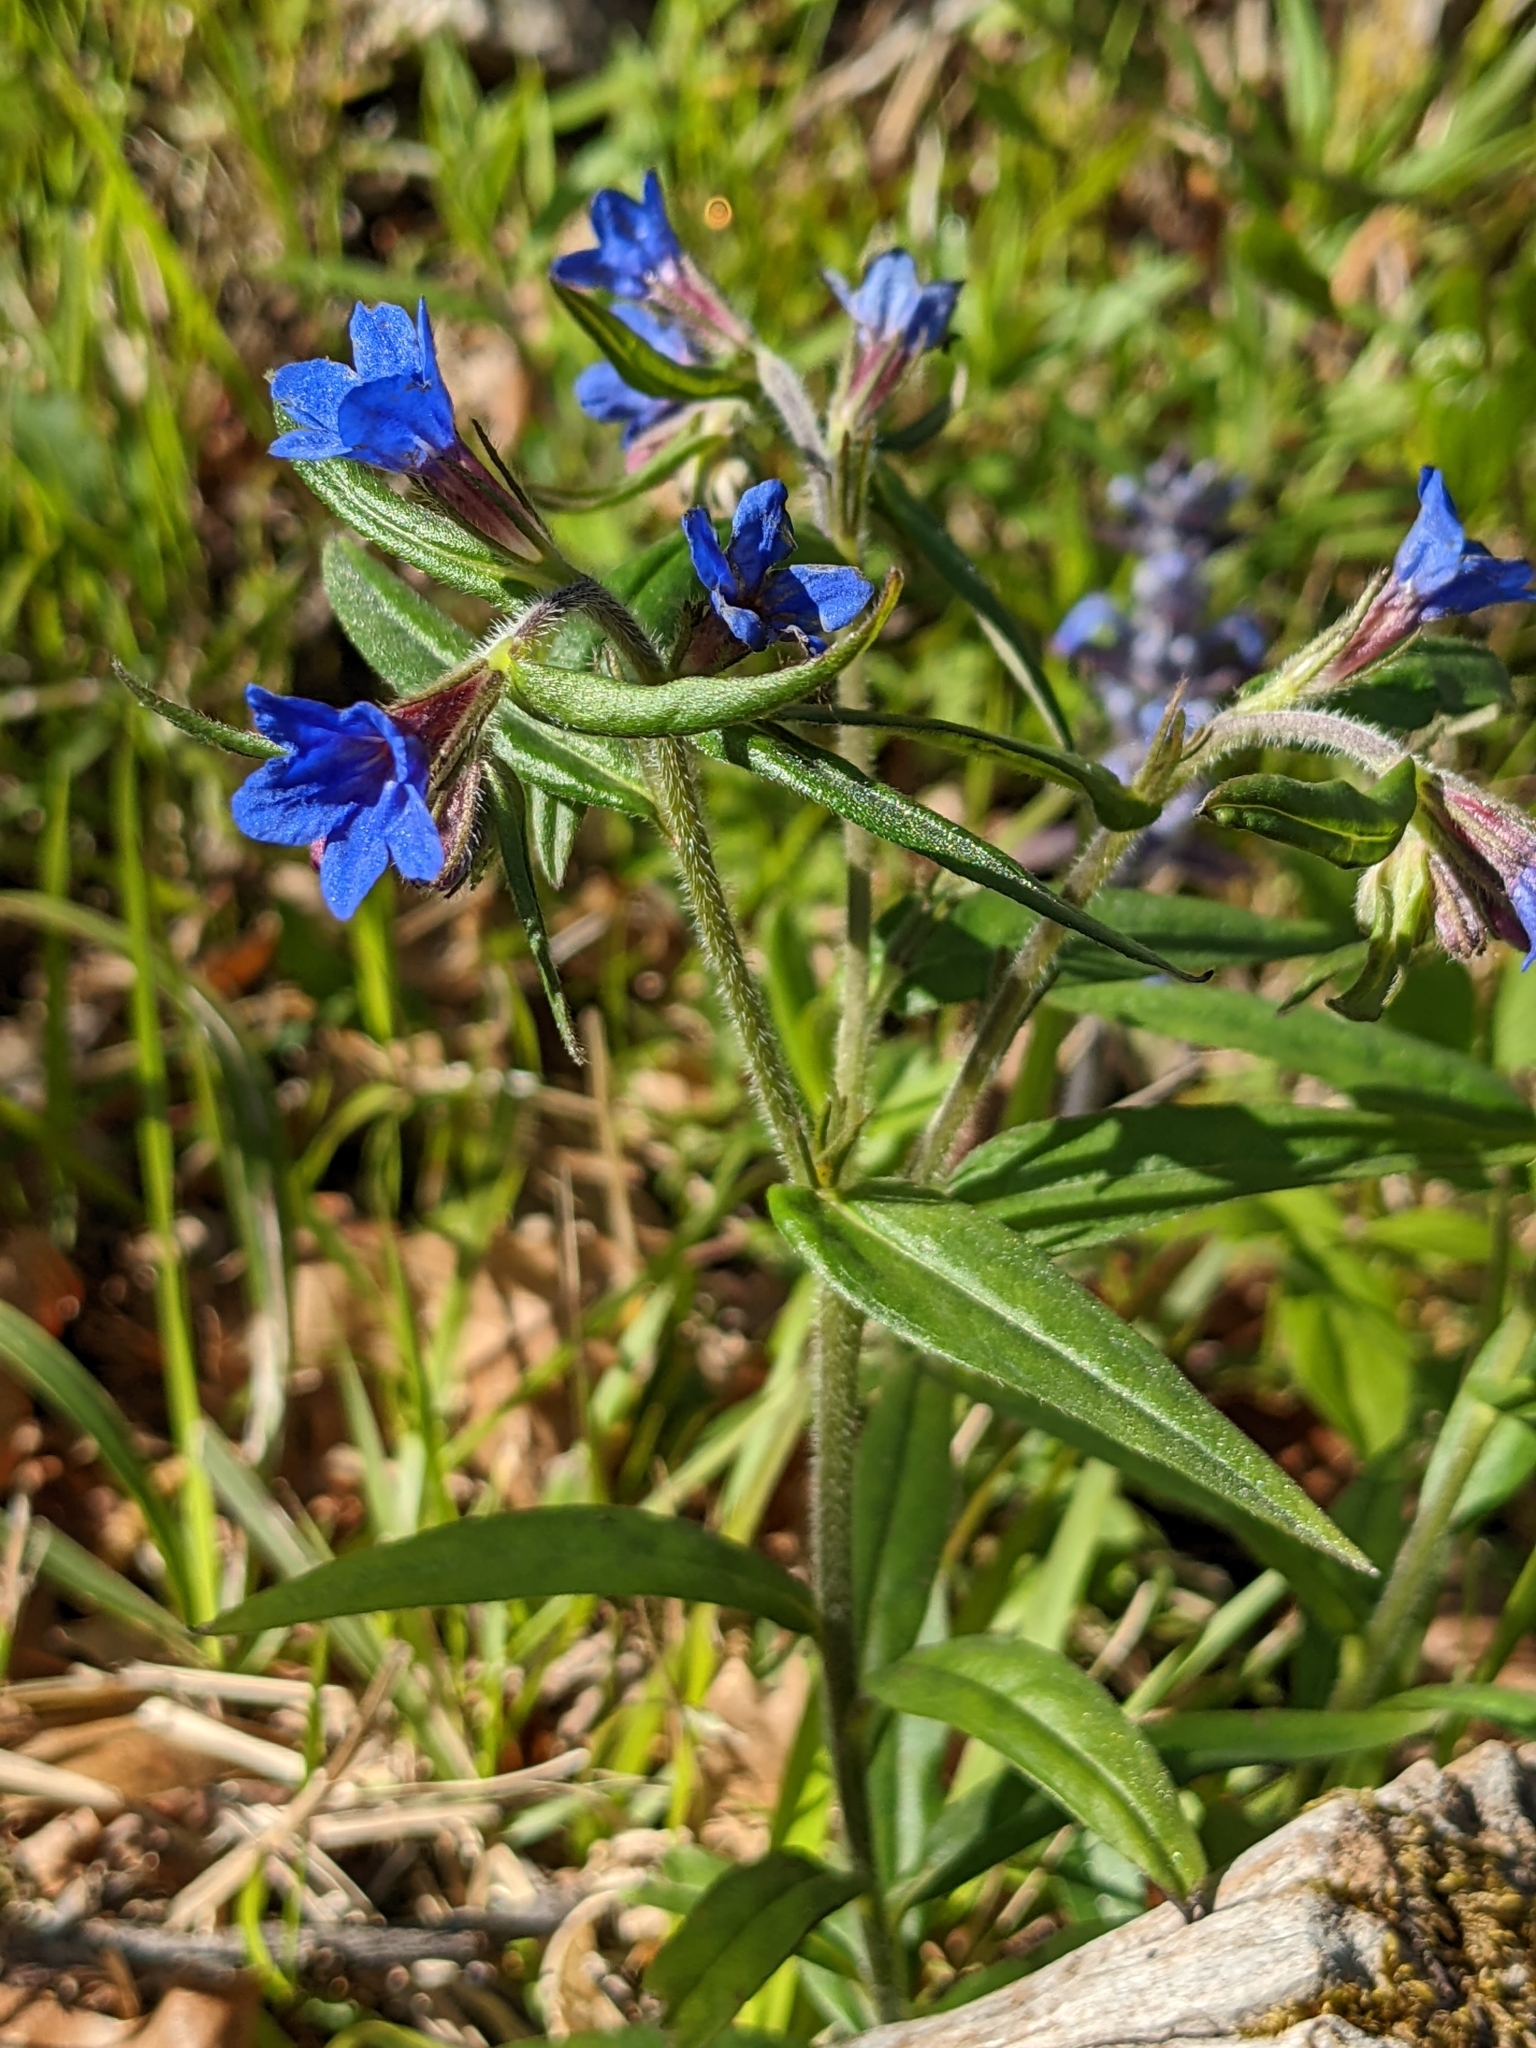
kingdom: Plantae
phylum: Tracheophyta
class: Magnoliopsida
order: Boraginales
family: Boraginaceae
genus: Aegonychon
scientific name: Aegonychon purpurocaeruleum
